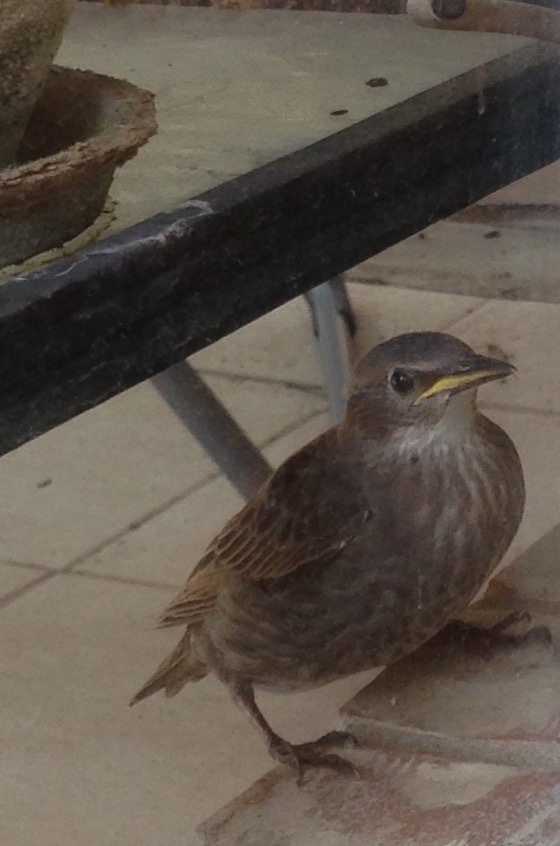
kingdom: Animalia
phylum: Chordata
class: Aves
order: Passeriformes
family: Sturnidae
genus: Sturnus
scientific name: Sturnus vulgaris
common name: Common starling
